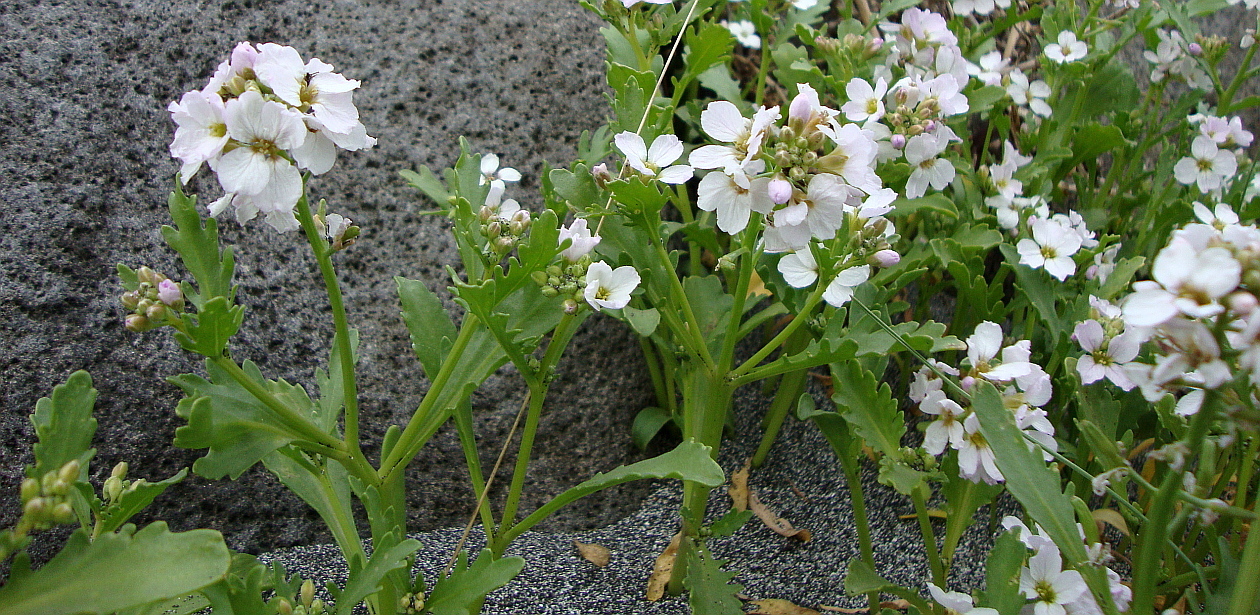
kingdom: Plantae
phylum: Tracheophyta
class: Magnoliopsida
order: Brassicales
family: Brassicaceae
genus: Cakile
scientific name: Cakile arctica
